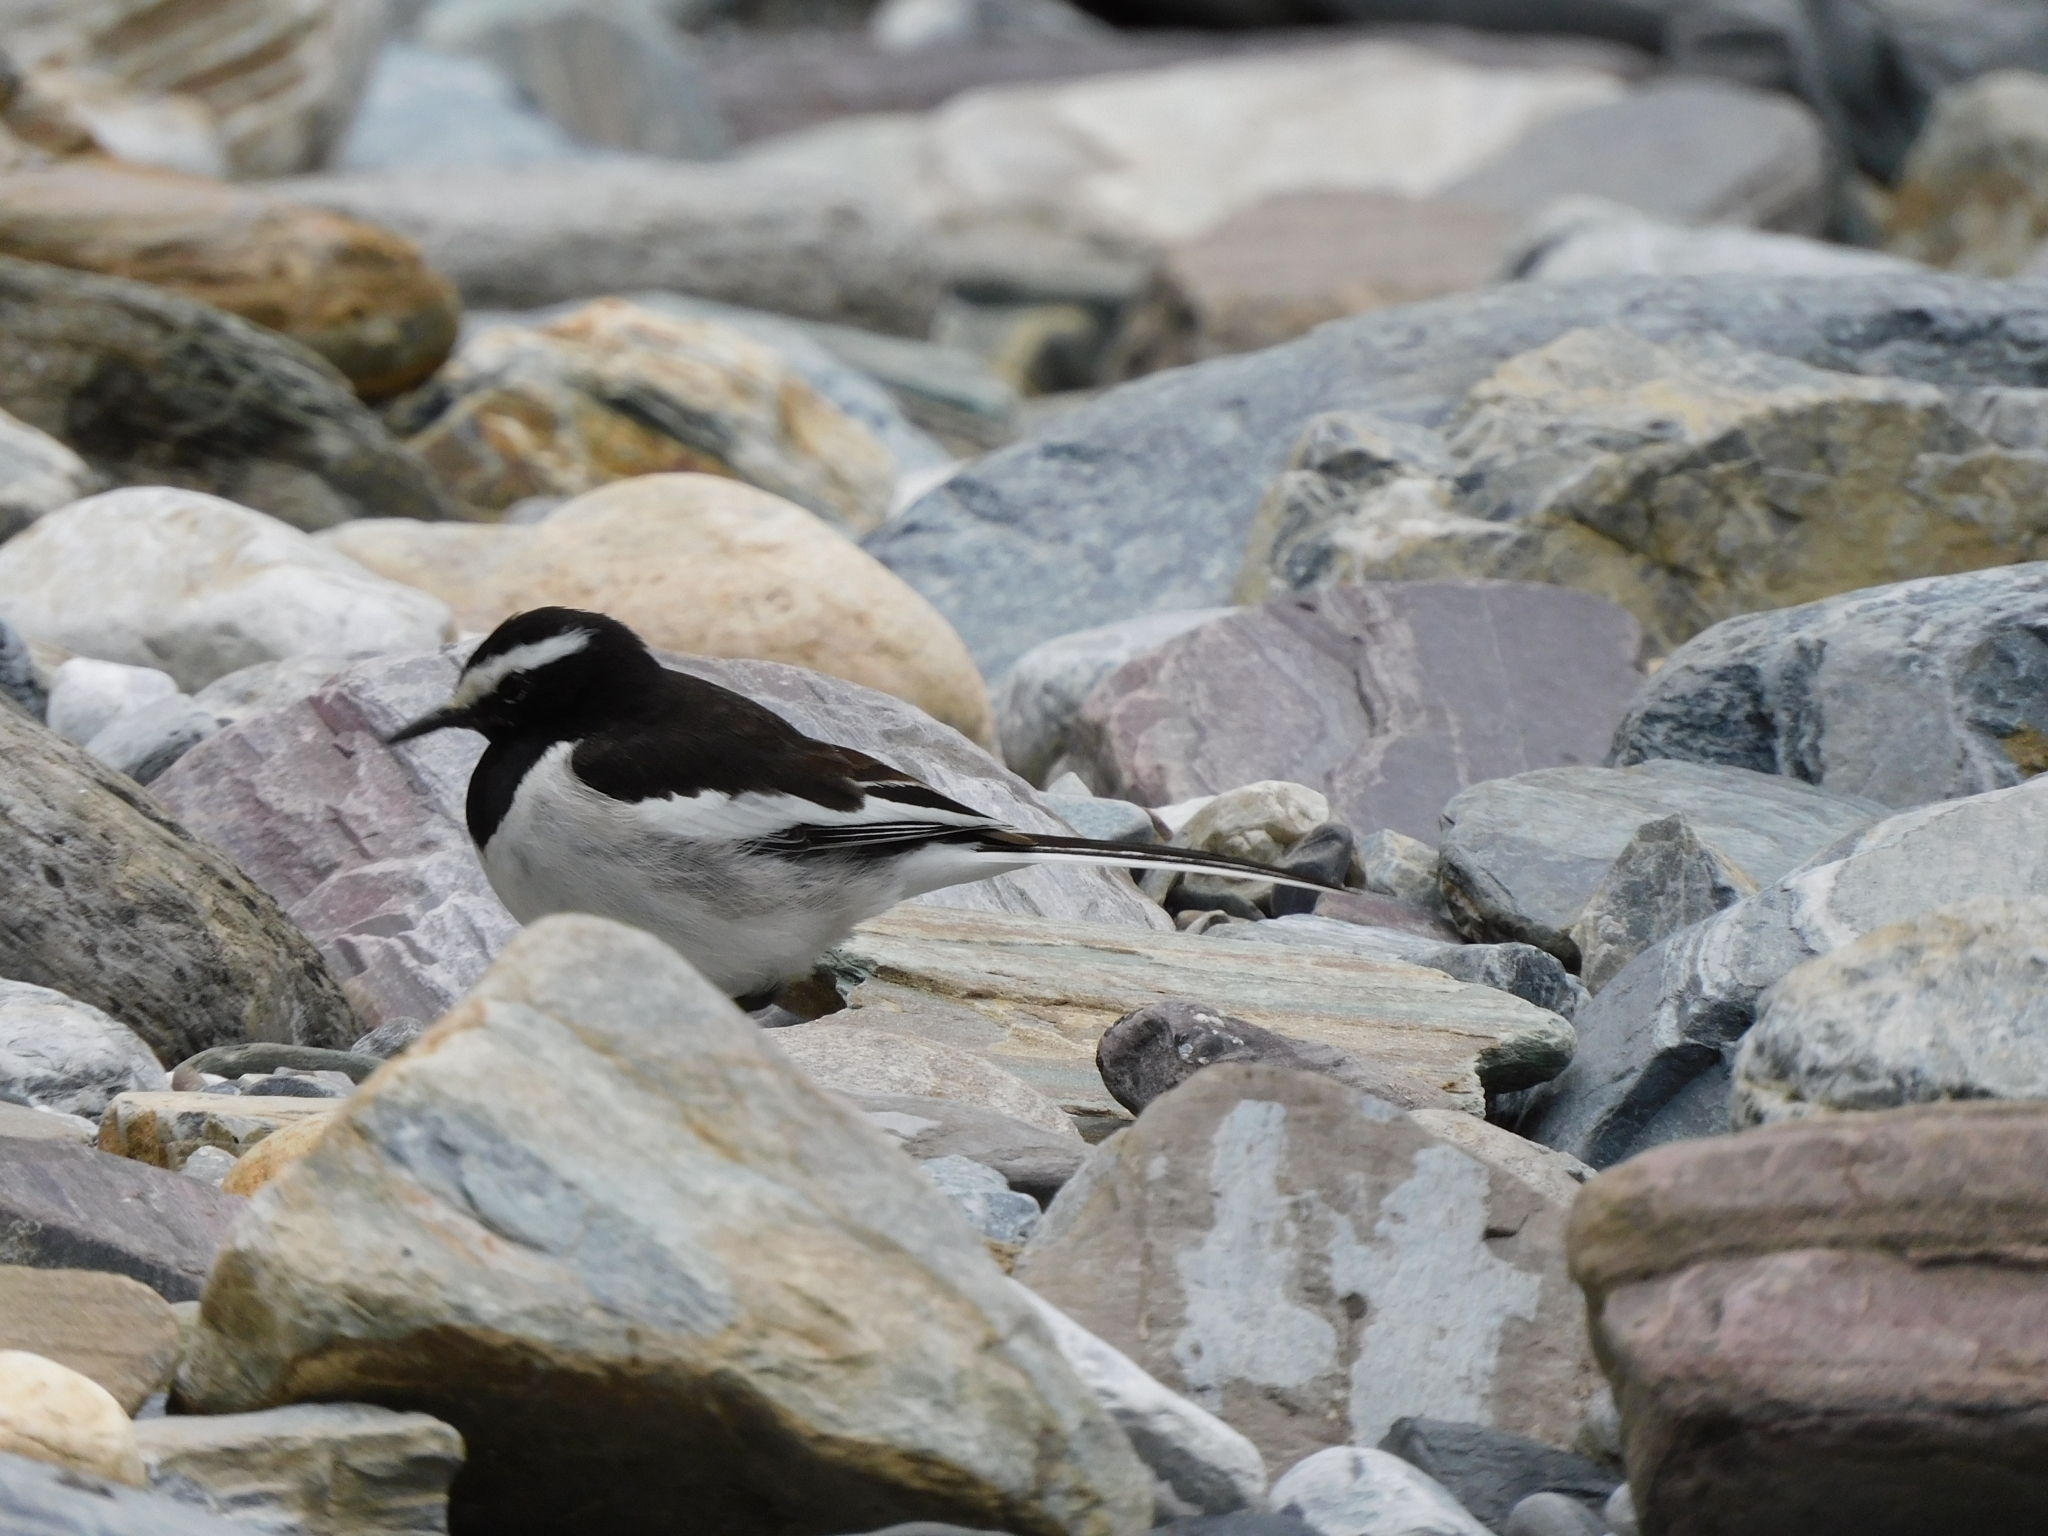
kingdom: Animalia
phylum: Chordata
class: Aves
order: Passeriformes
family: Motacillidae
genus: Motacilla
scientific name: Motacilla maderaspatensis
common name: White-browed wagtail
